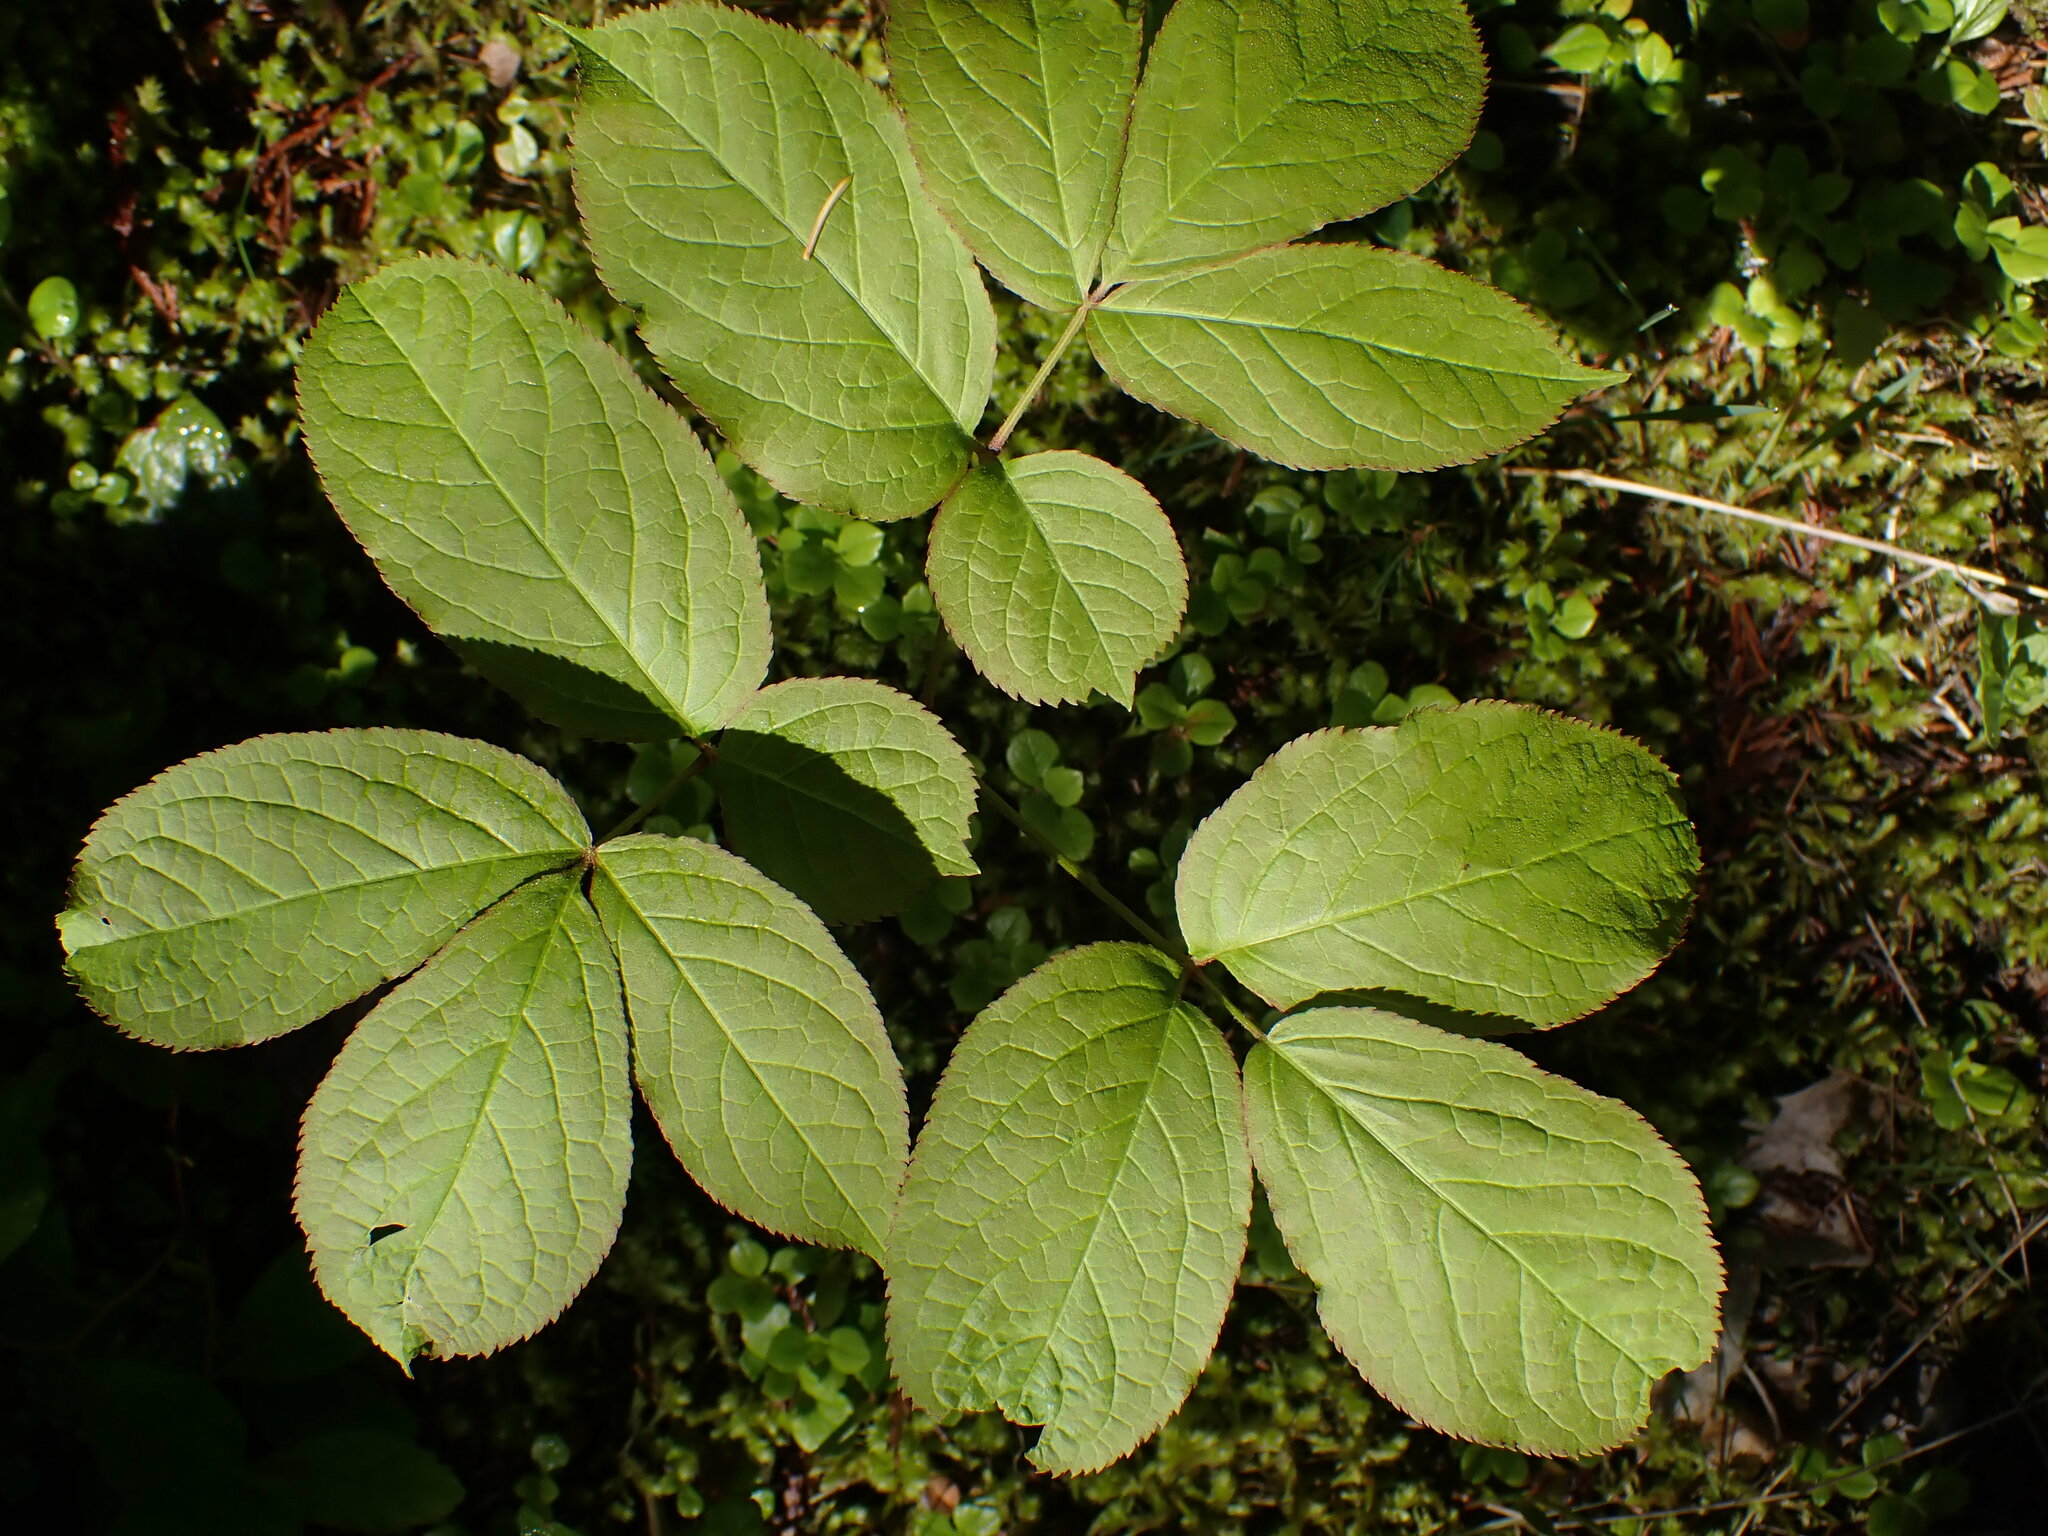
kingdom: Plantae
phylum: Tracheophyta
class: Magnoliopsida
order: Apiales
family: Araliaceae
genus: Aralia
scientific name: Aralia nudicaulis
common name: Wild sarsaparilla
